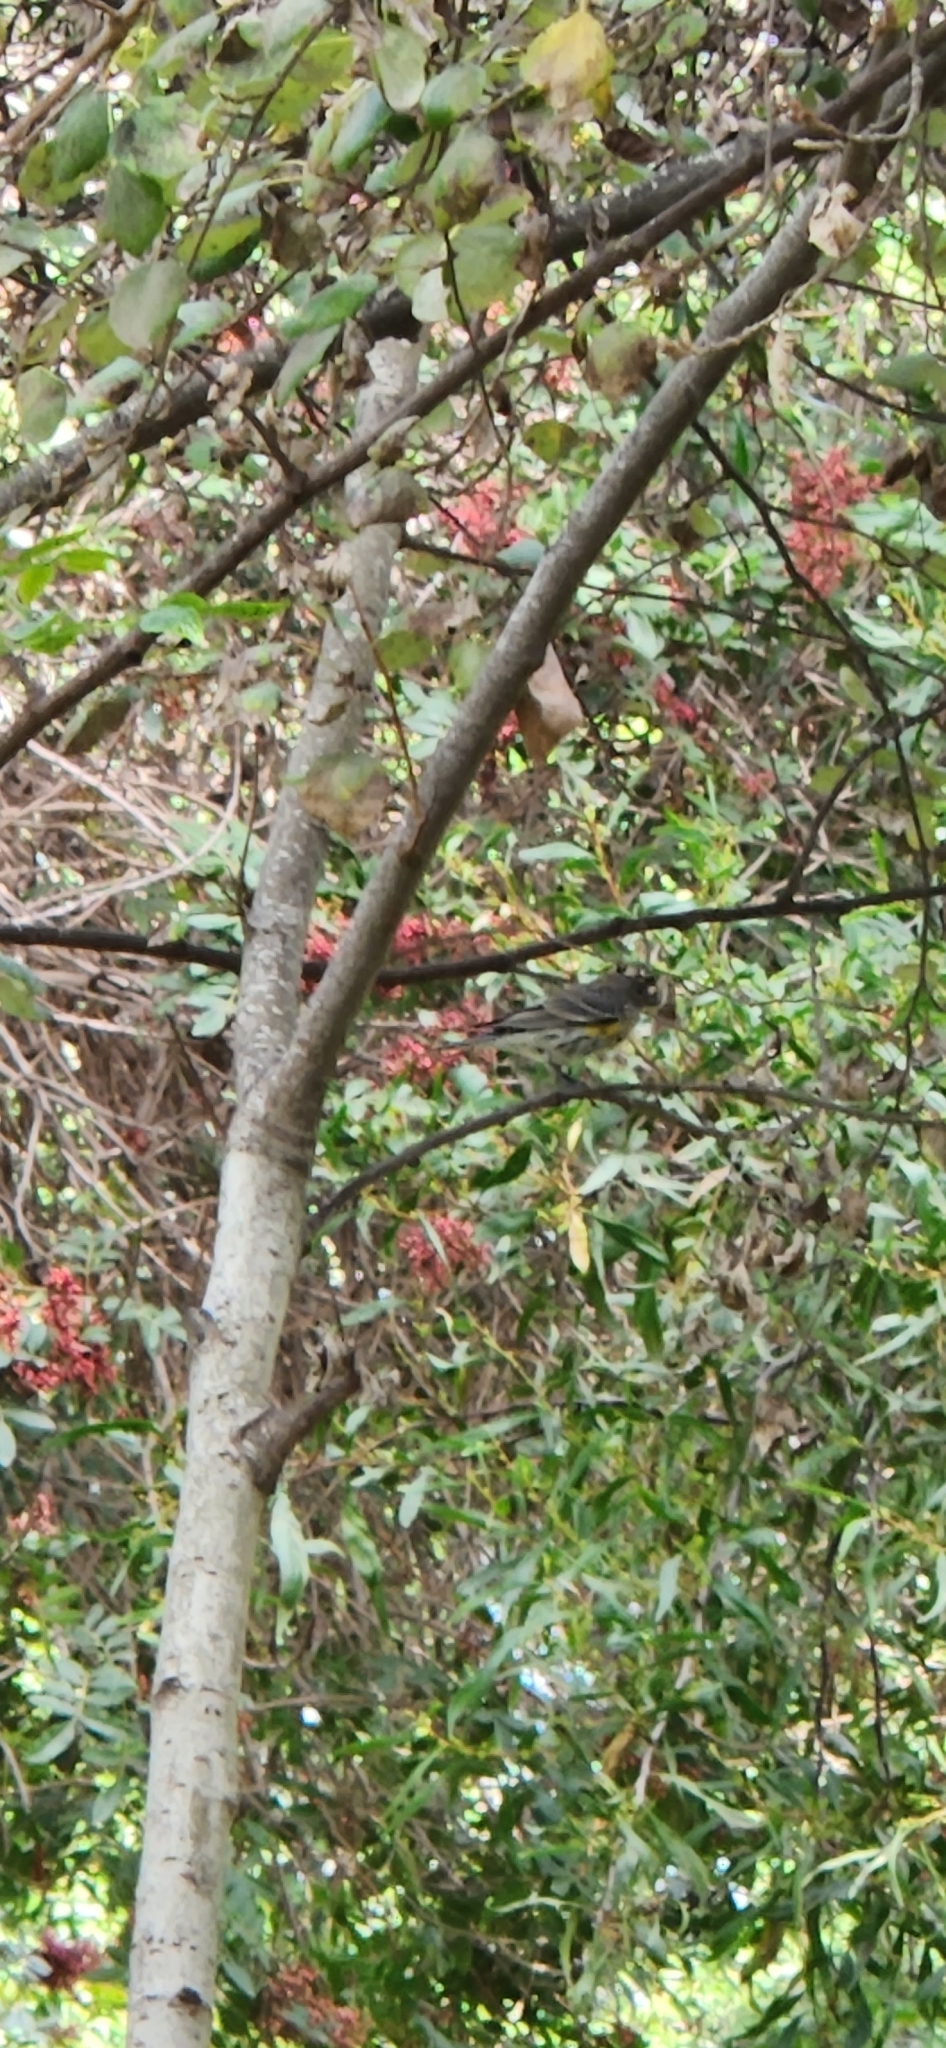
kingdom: Animalia
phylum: Chordata
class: Aves
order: Passeriformes
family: Parulidae
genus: Setophaga
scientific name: Setophaga auduboni
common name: Audubon's warbler
